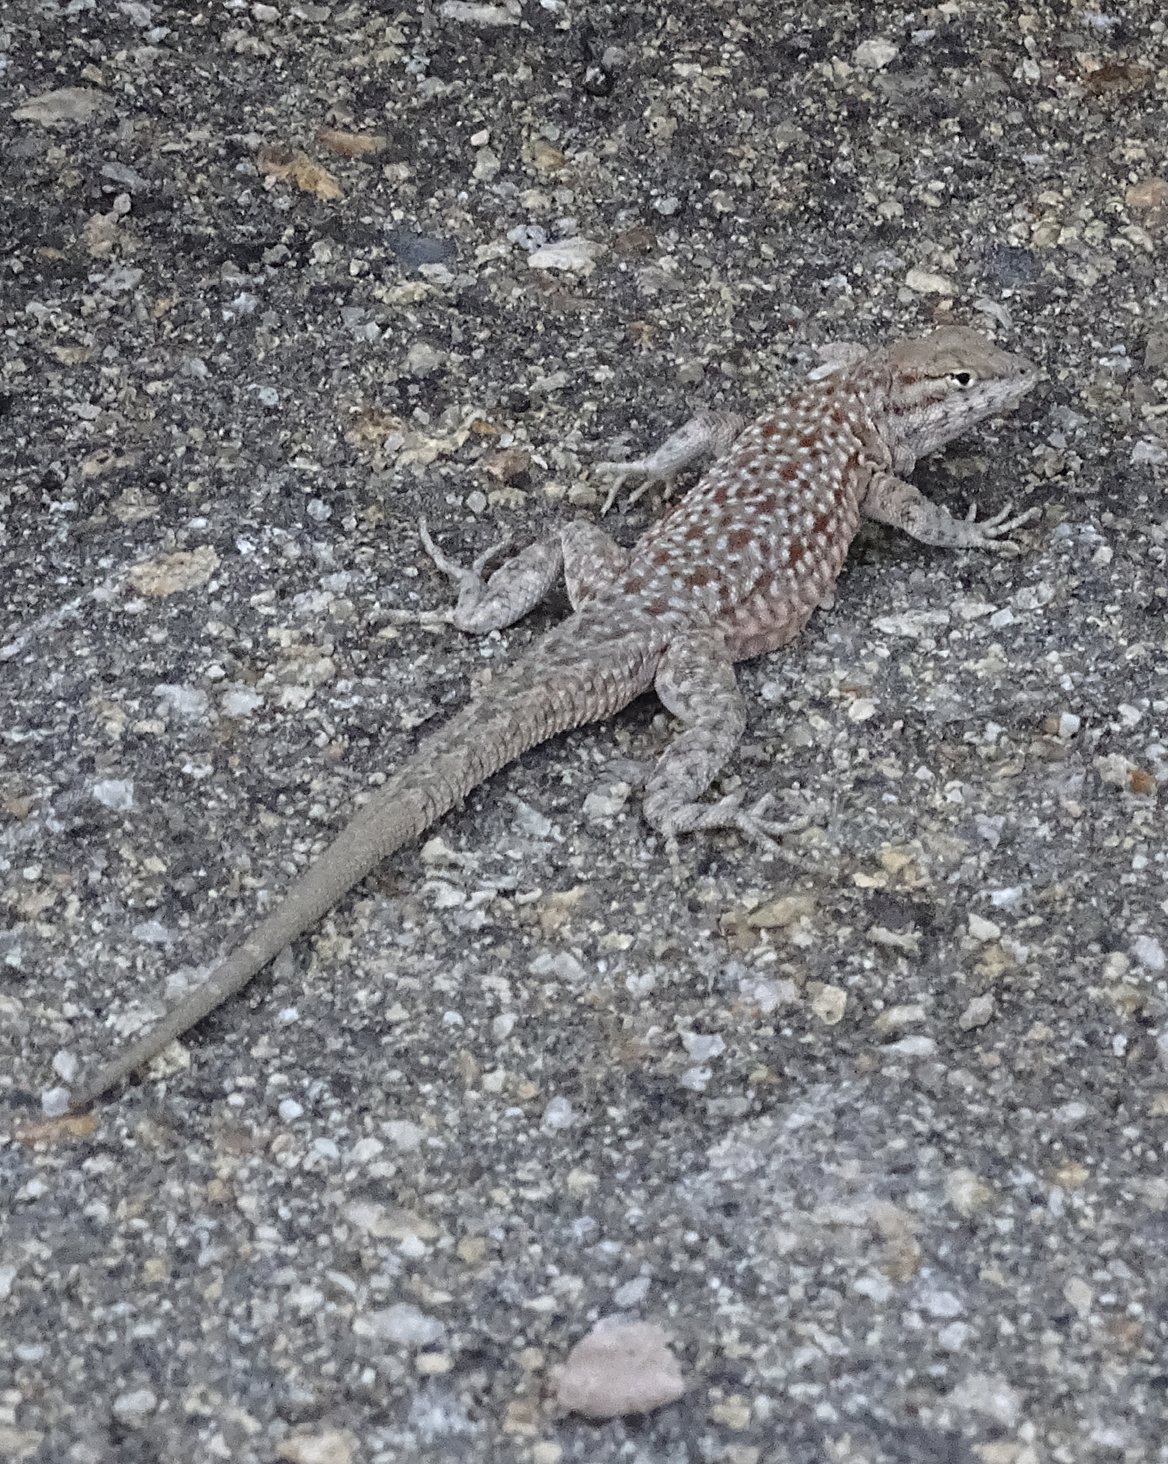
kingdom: Animalia
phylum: Chordata
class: Squamata
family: Phrynosomatidae
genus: Uta
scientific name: Uta stansburiana
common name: Side-blotched lizard
